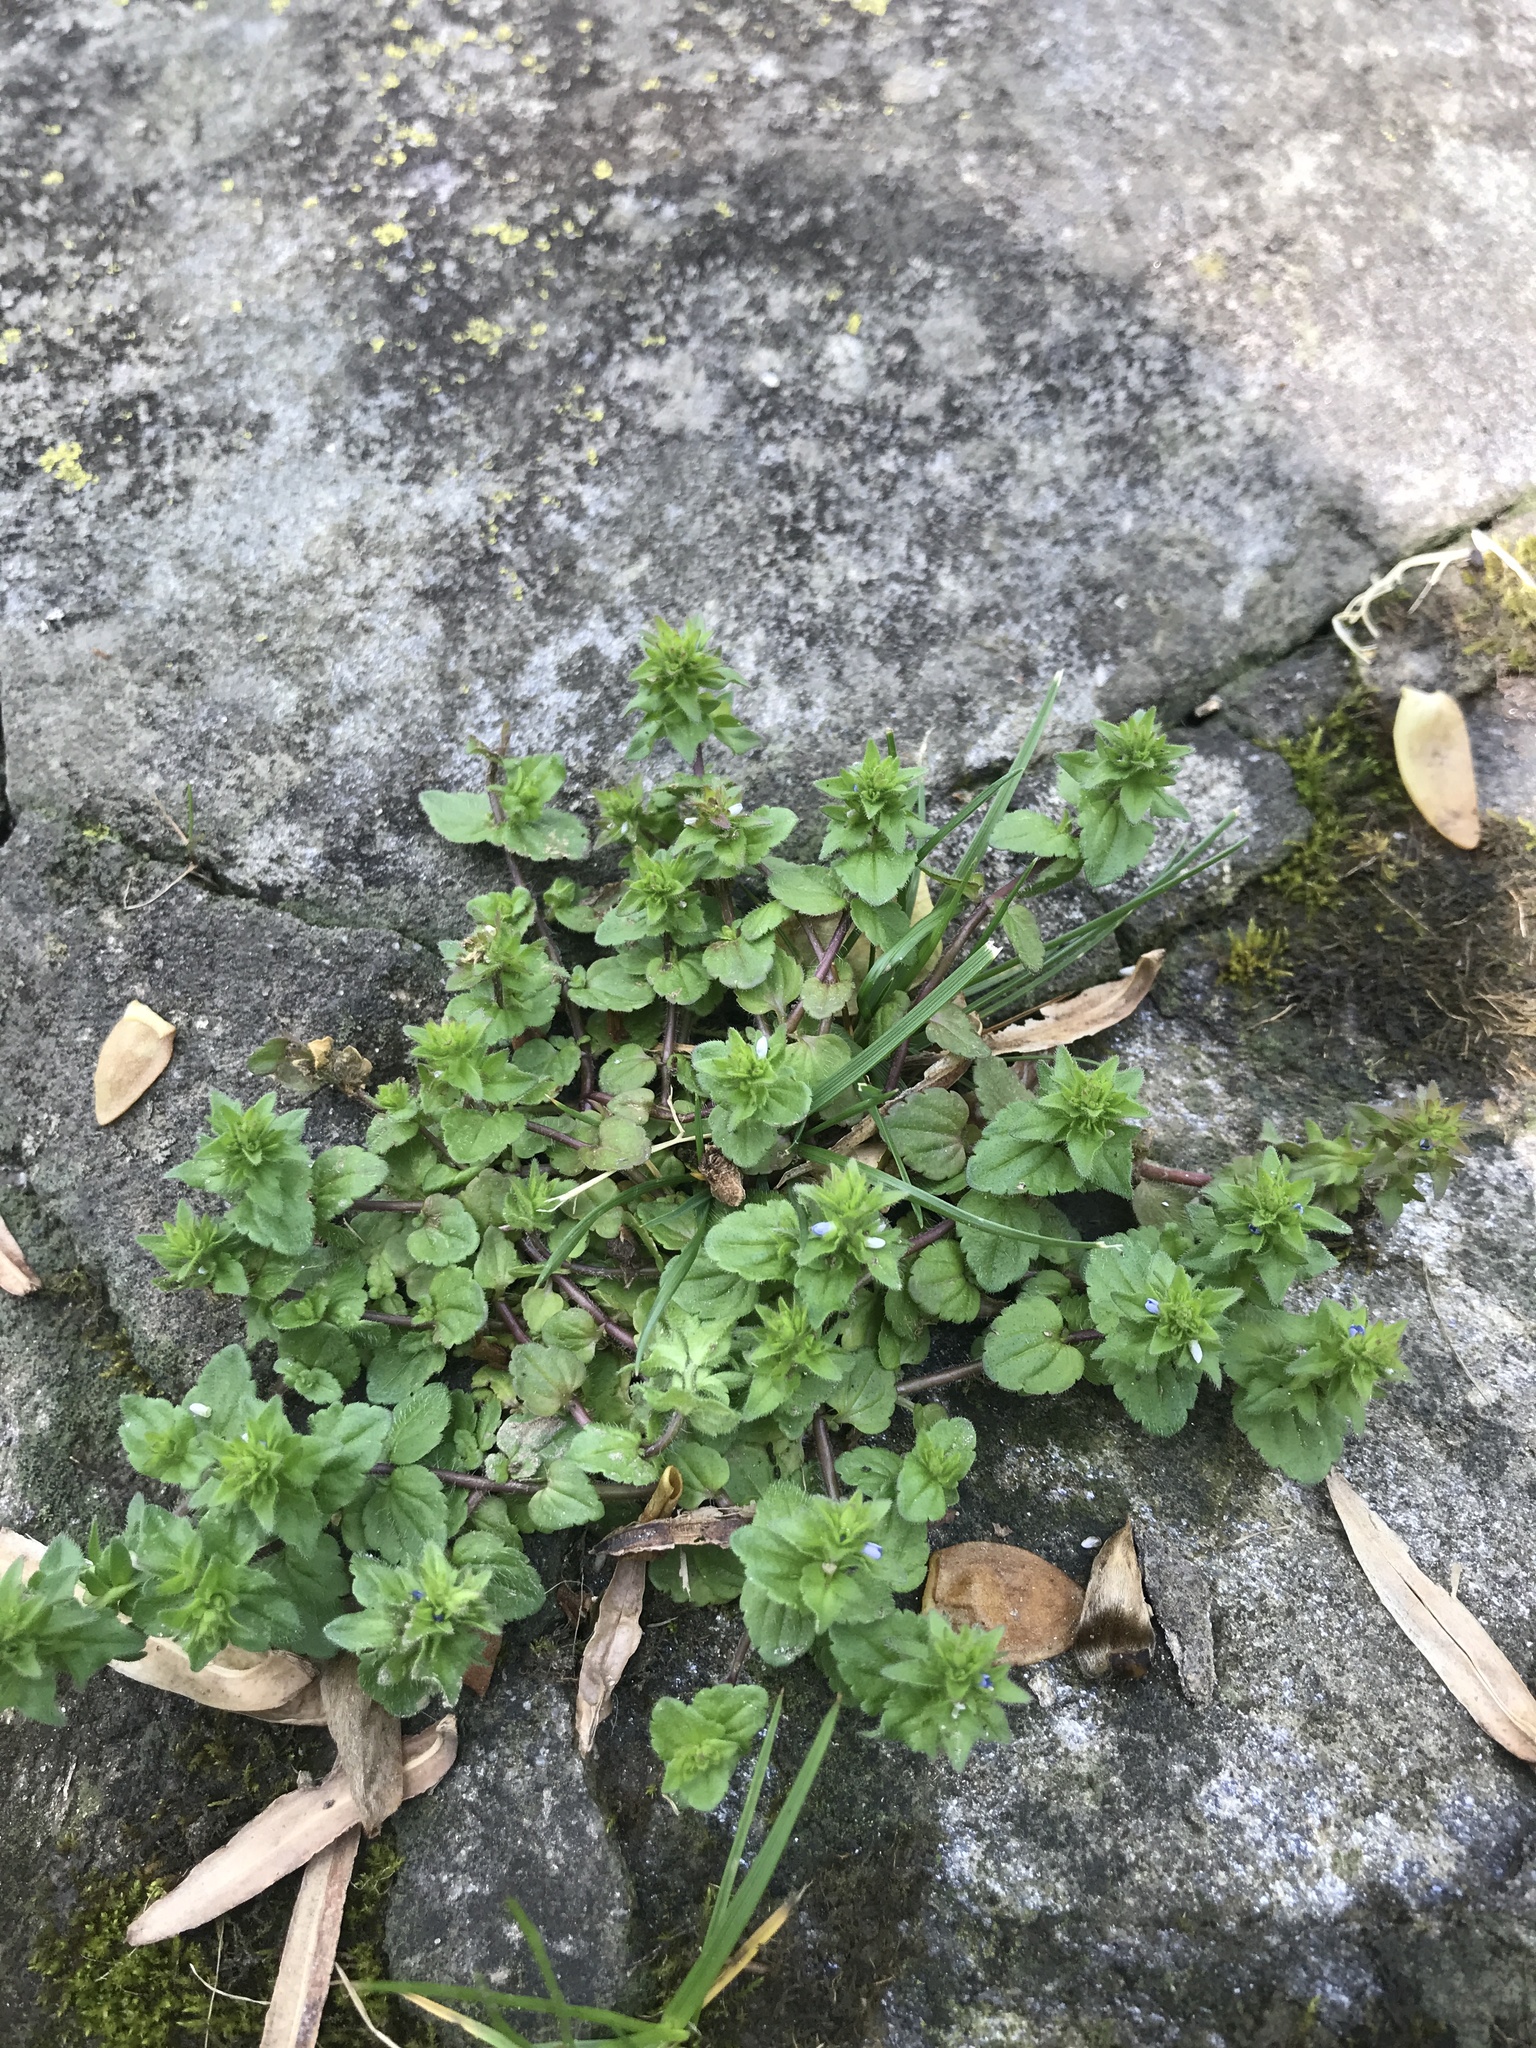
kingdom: Plantae
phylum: Tracheophyta
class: Magnoliopsida
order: Lamiales
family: Plantaginaceae
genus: Veronica
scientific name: Veronica arvensis
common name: Corn speedwell
